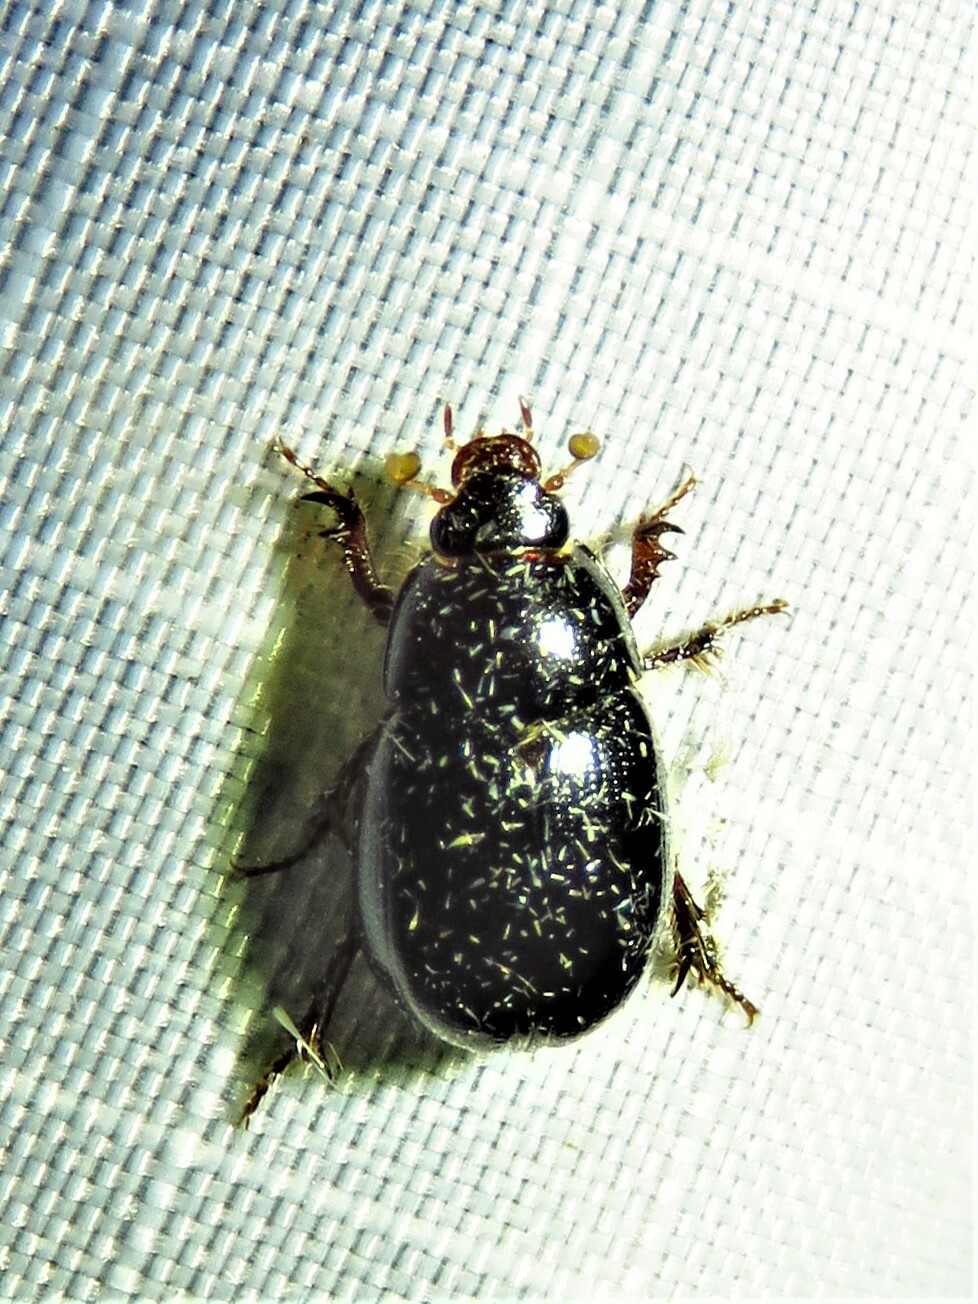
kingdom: Animalia
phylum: Arthropoda
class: Insecta
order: Coleoptera
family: Hybosoridae
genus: Hybosorus
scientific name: Hybosorus illigeri
